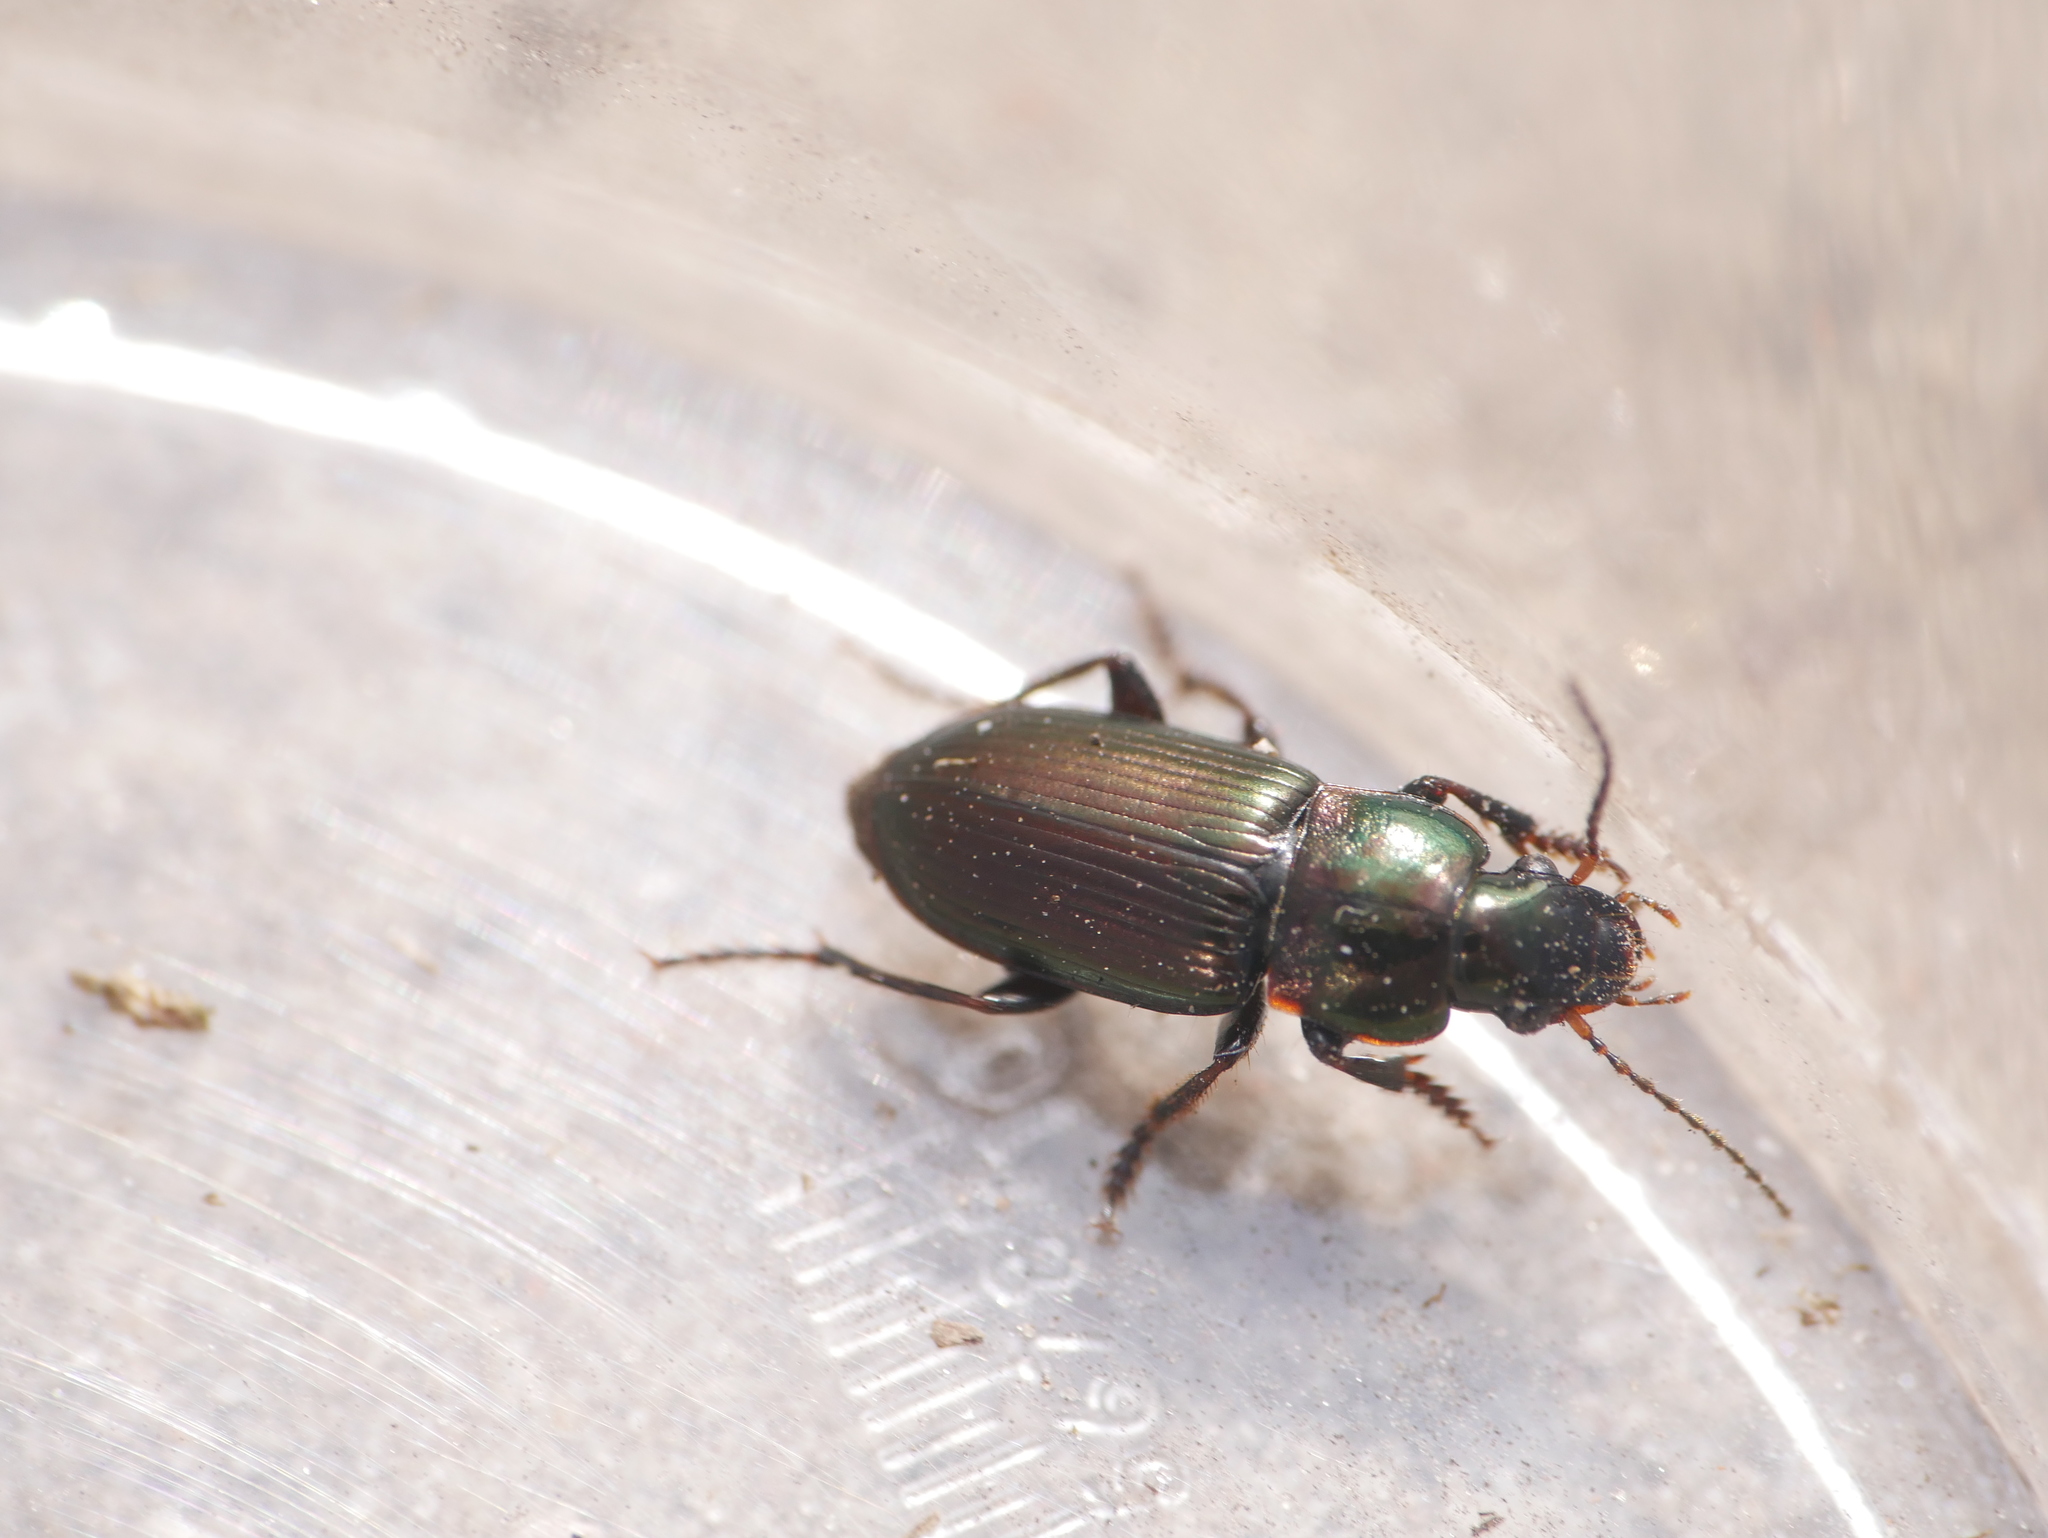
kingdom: Animalia
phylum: Arthropoda
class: Insecta
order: Coleoptera
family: Carabidae
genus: Harpalus
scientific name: Harpalus distinguendus
